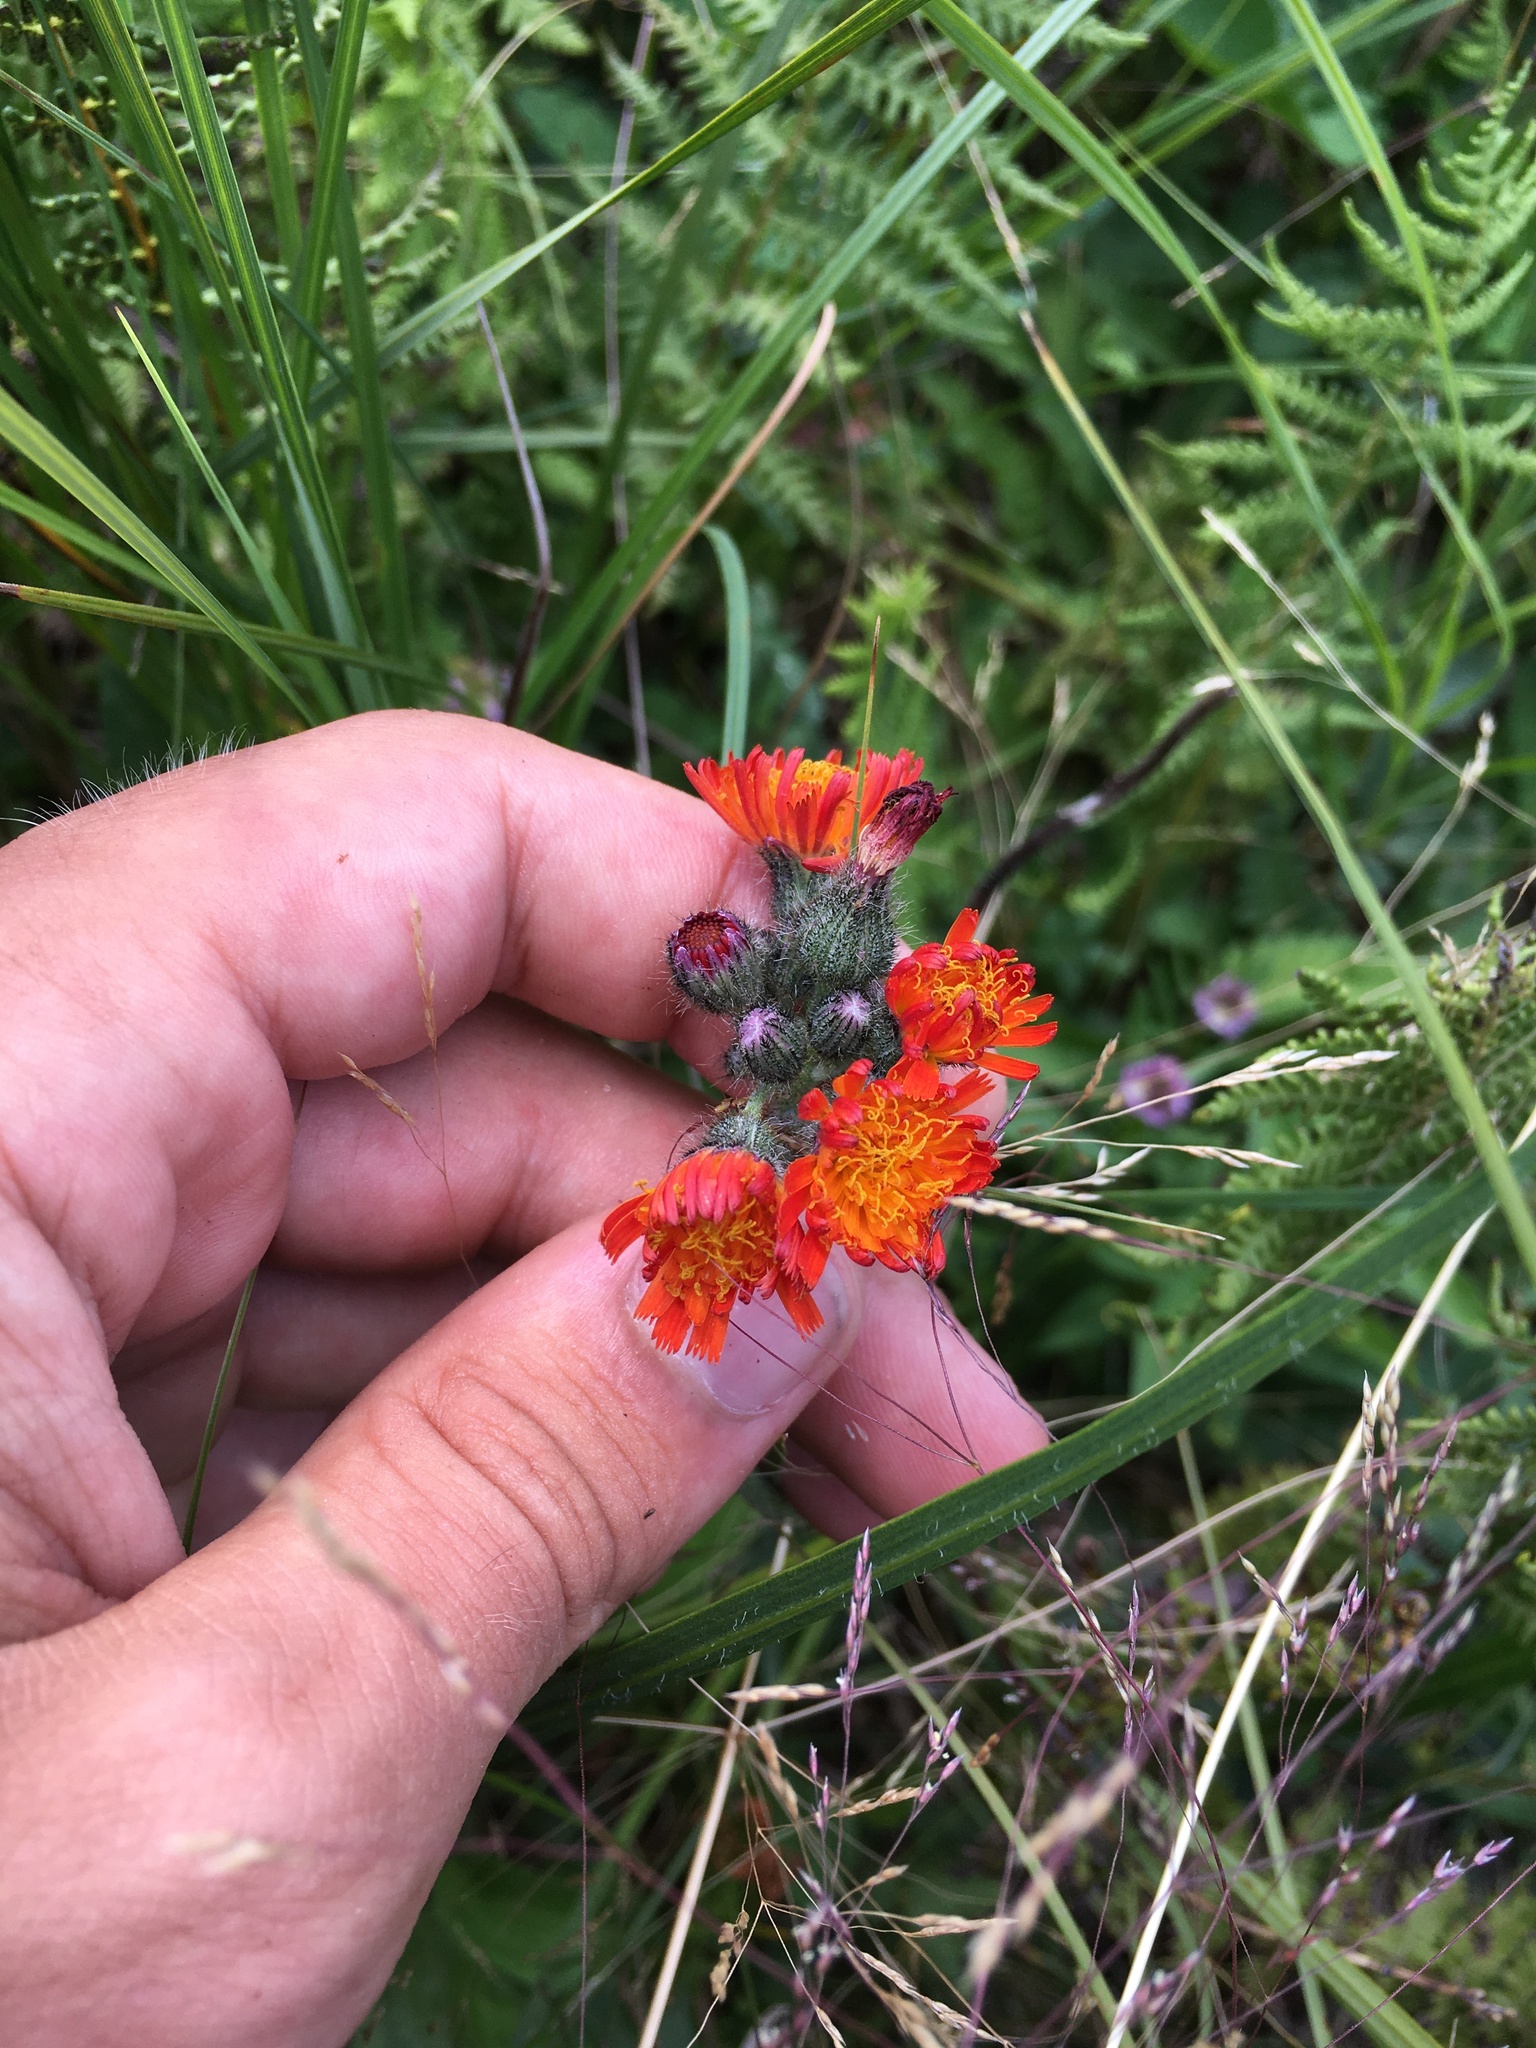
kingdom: Plantae
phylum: Tracheophyta
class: Magnoliopsida
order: Asterales
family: Asteraceae
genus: Pilosella
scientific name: Pilosella aurantiaca
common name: Fox-and-cubs
